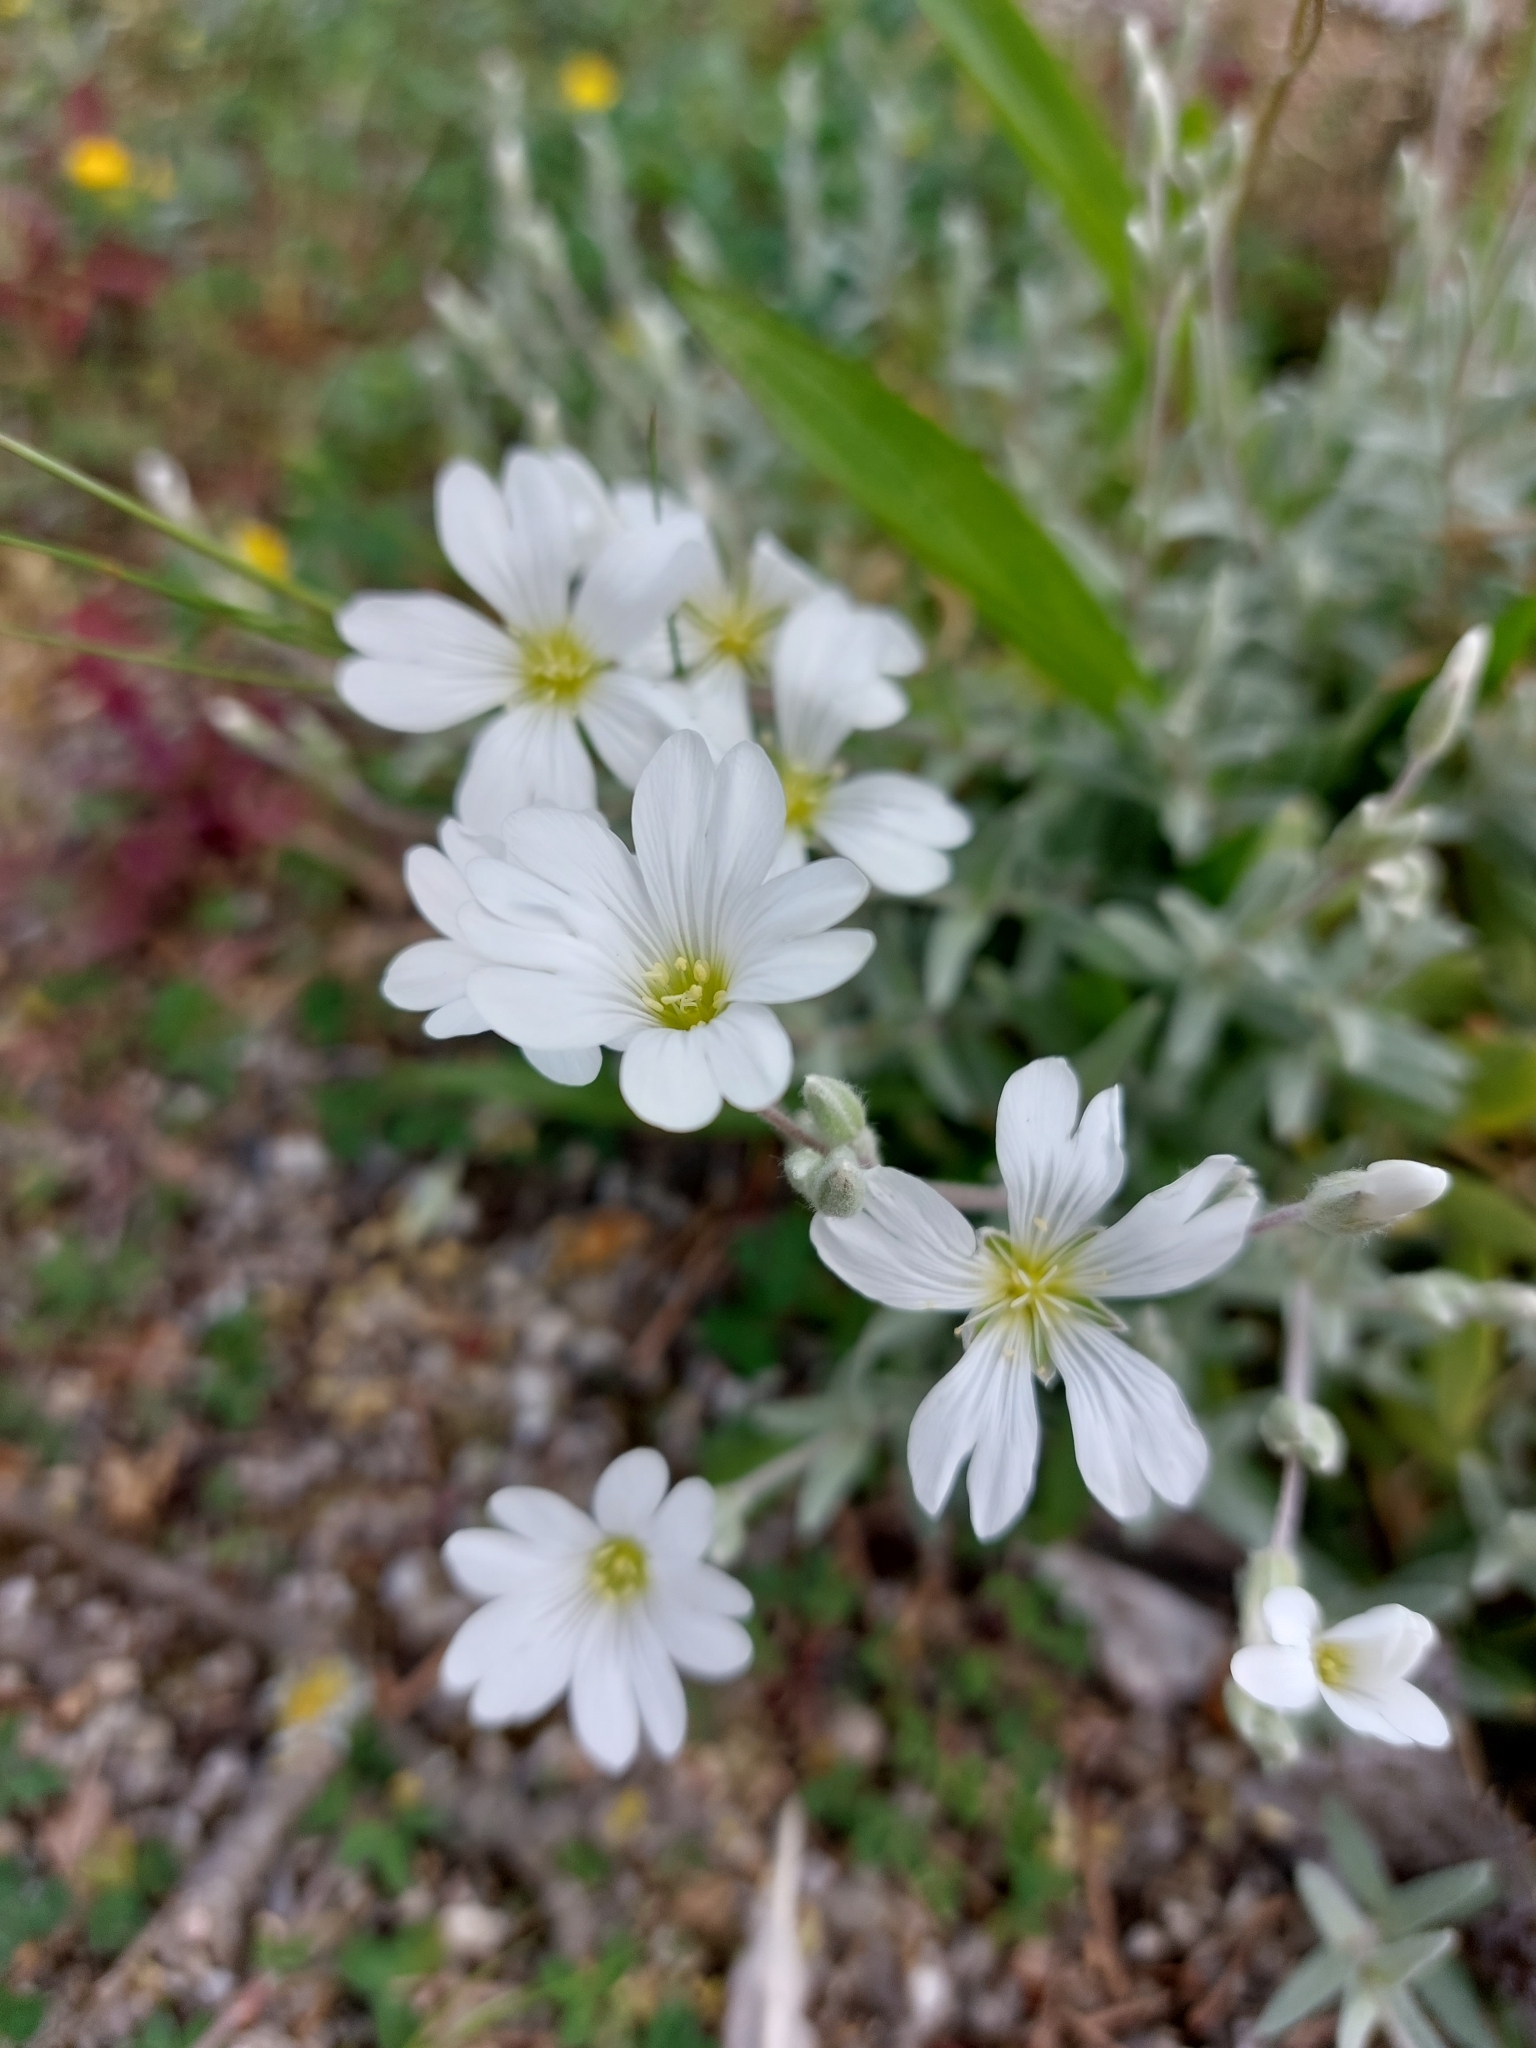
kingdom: Plantae
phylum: Tracheophyta
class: Magnoliopsida
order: Caryophyllales
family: Caryophyllaceae
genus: Cerastium
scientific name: Cerastium tomentosum
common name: Snow-in-summer
